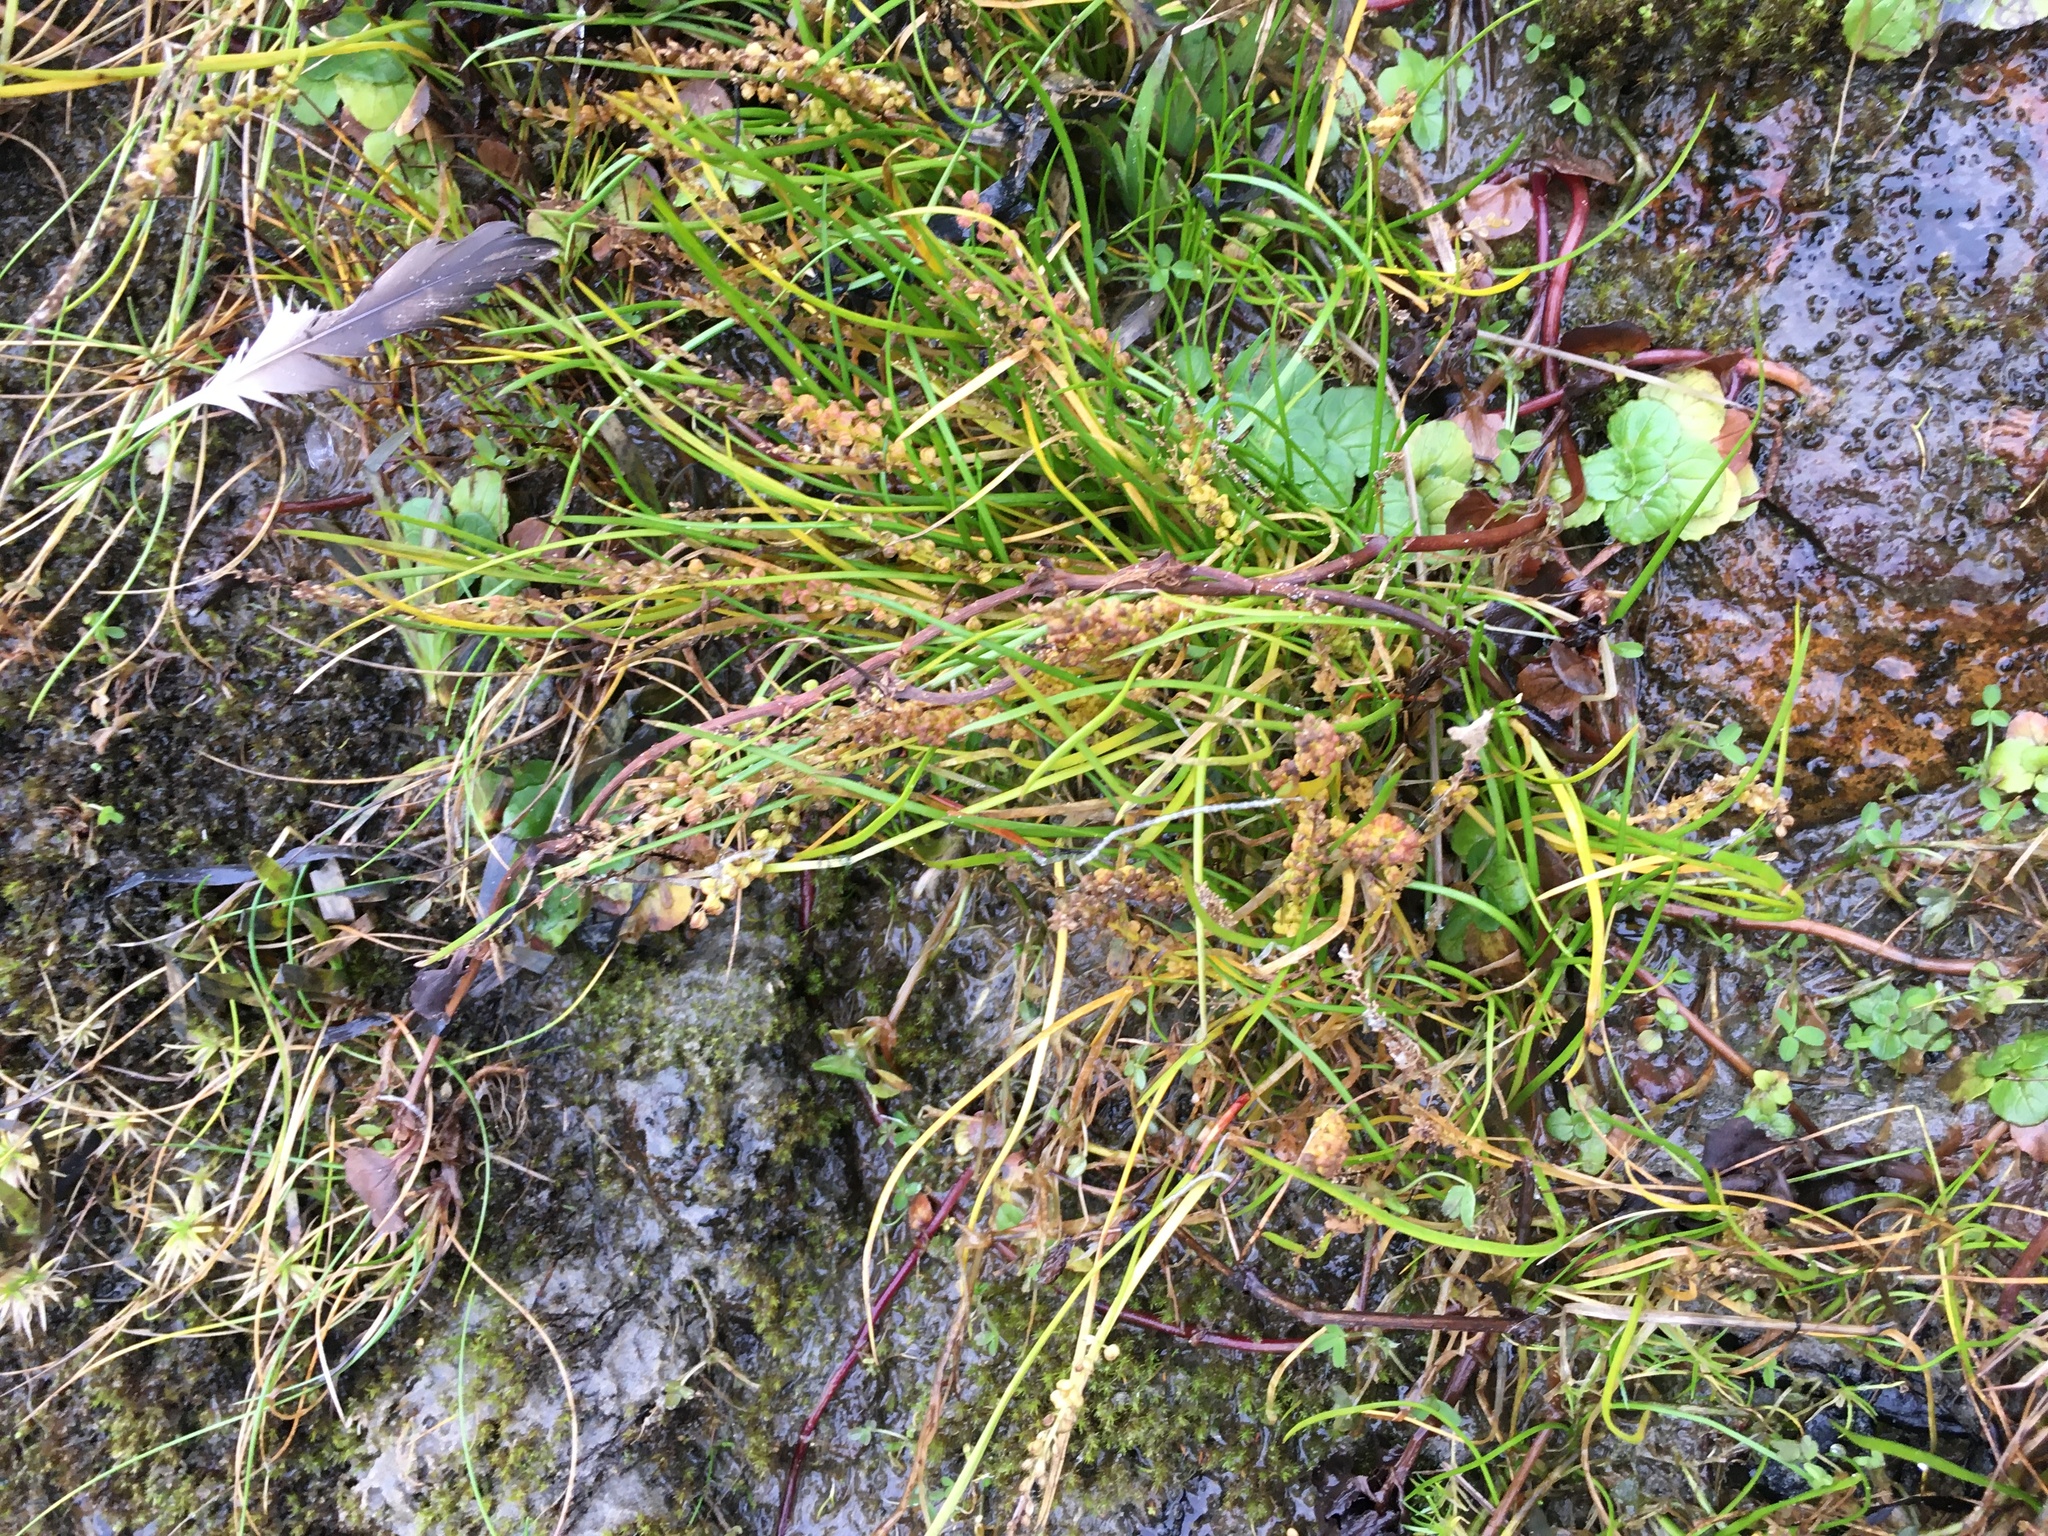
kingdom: Plantae
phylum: Tracheophyta
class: Liliopsida
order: Alismatales
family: Juncaginaceae
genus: Triglochin
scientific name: Triglochin striata
